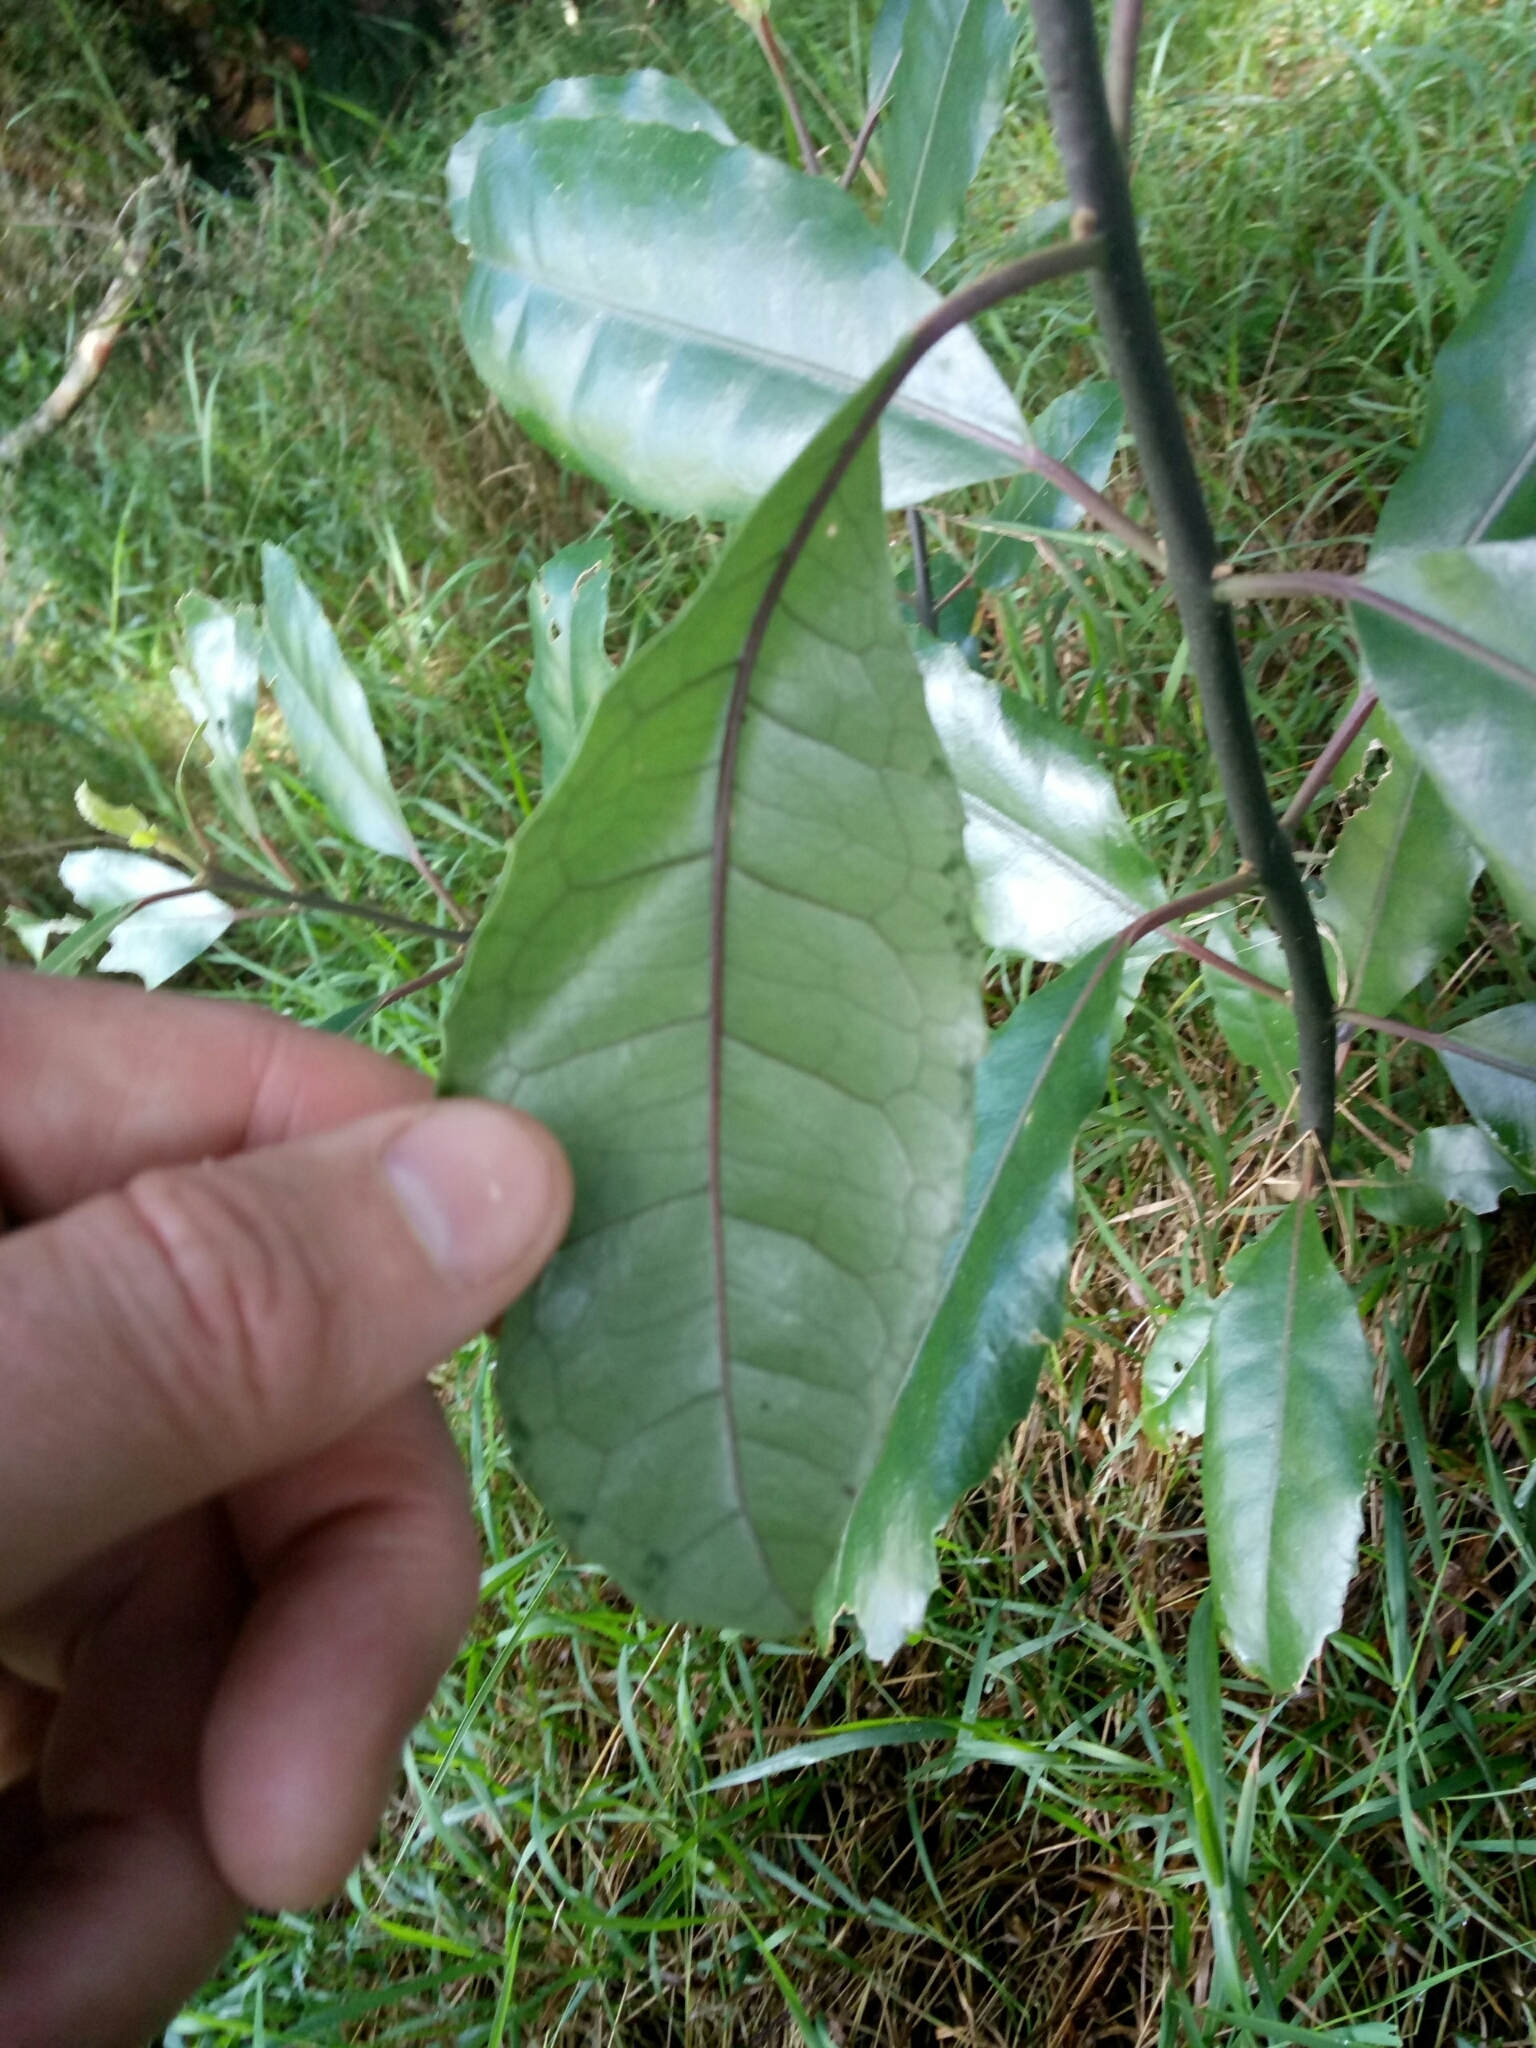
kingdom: Plantae
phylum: Tracheophyta
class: Magnoliopsida
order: Laurales
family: Monimiaceae
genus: Hedycarya
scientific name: Hedycarya arborea
